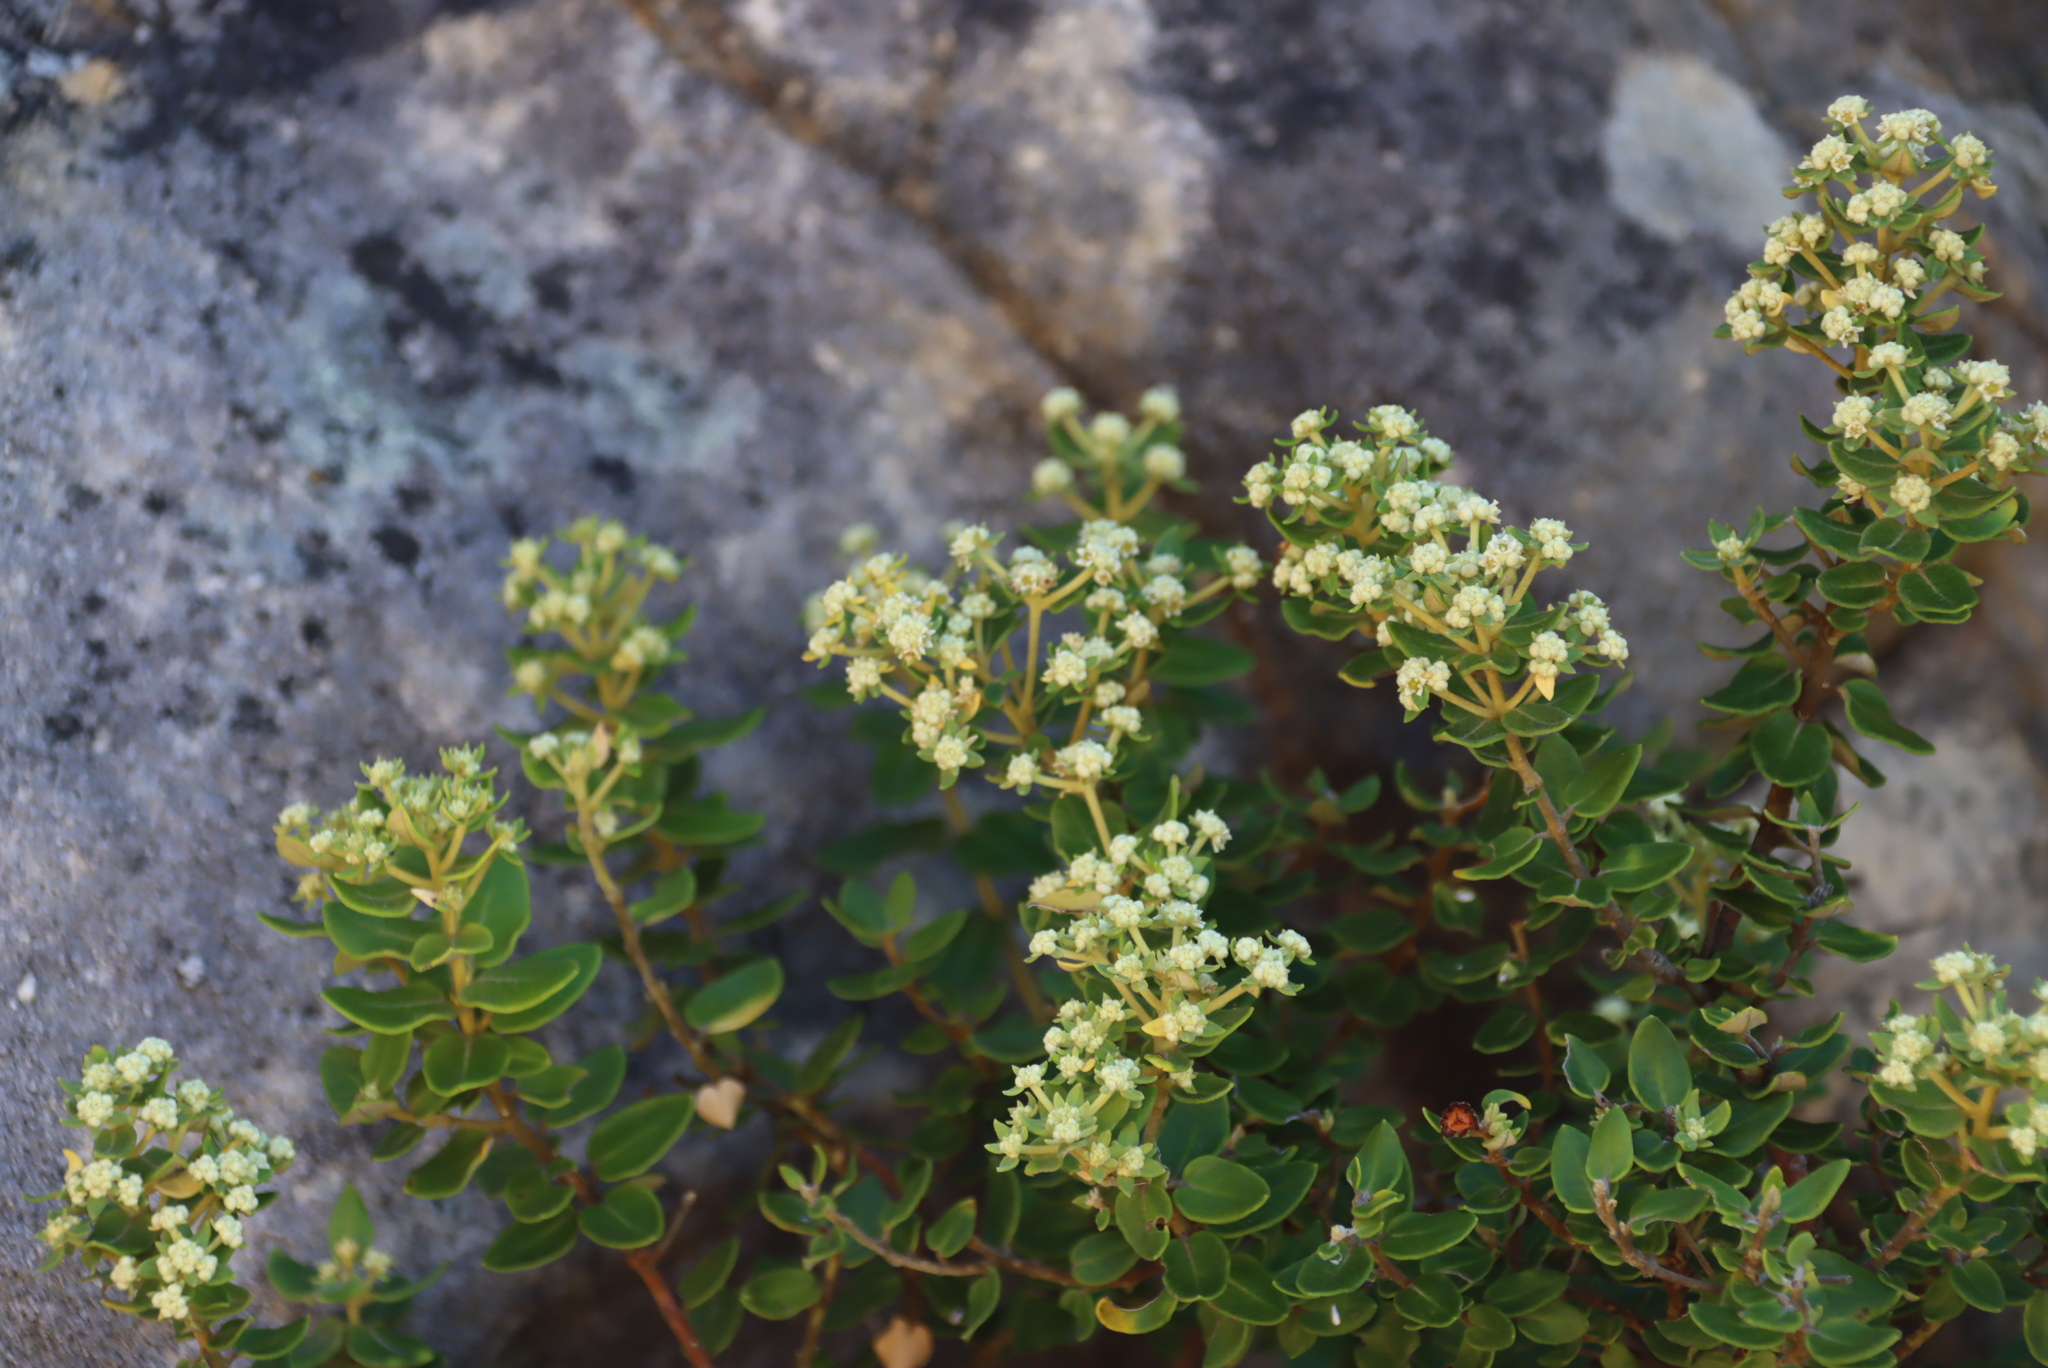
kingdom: Plantae
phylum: Tracheophyta
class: Magnoliopsida
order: Rosales
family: Rhamnaceae
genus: Phylica
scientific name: Phylica buxifolia
